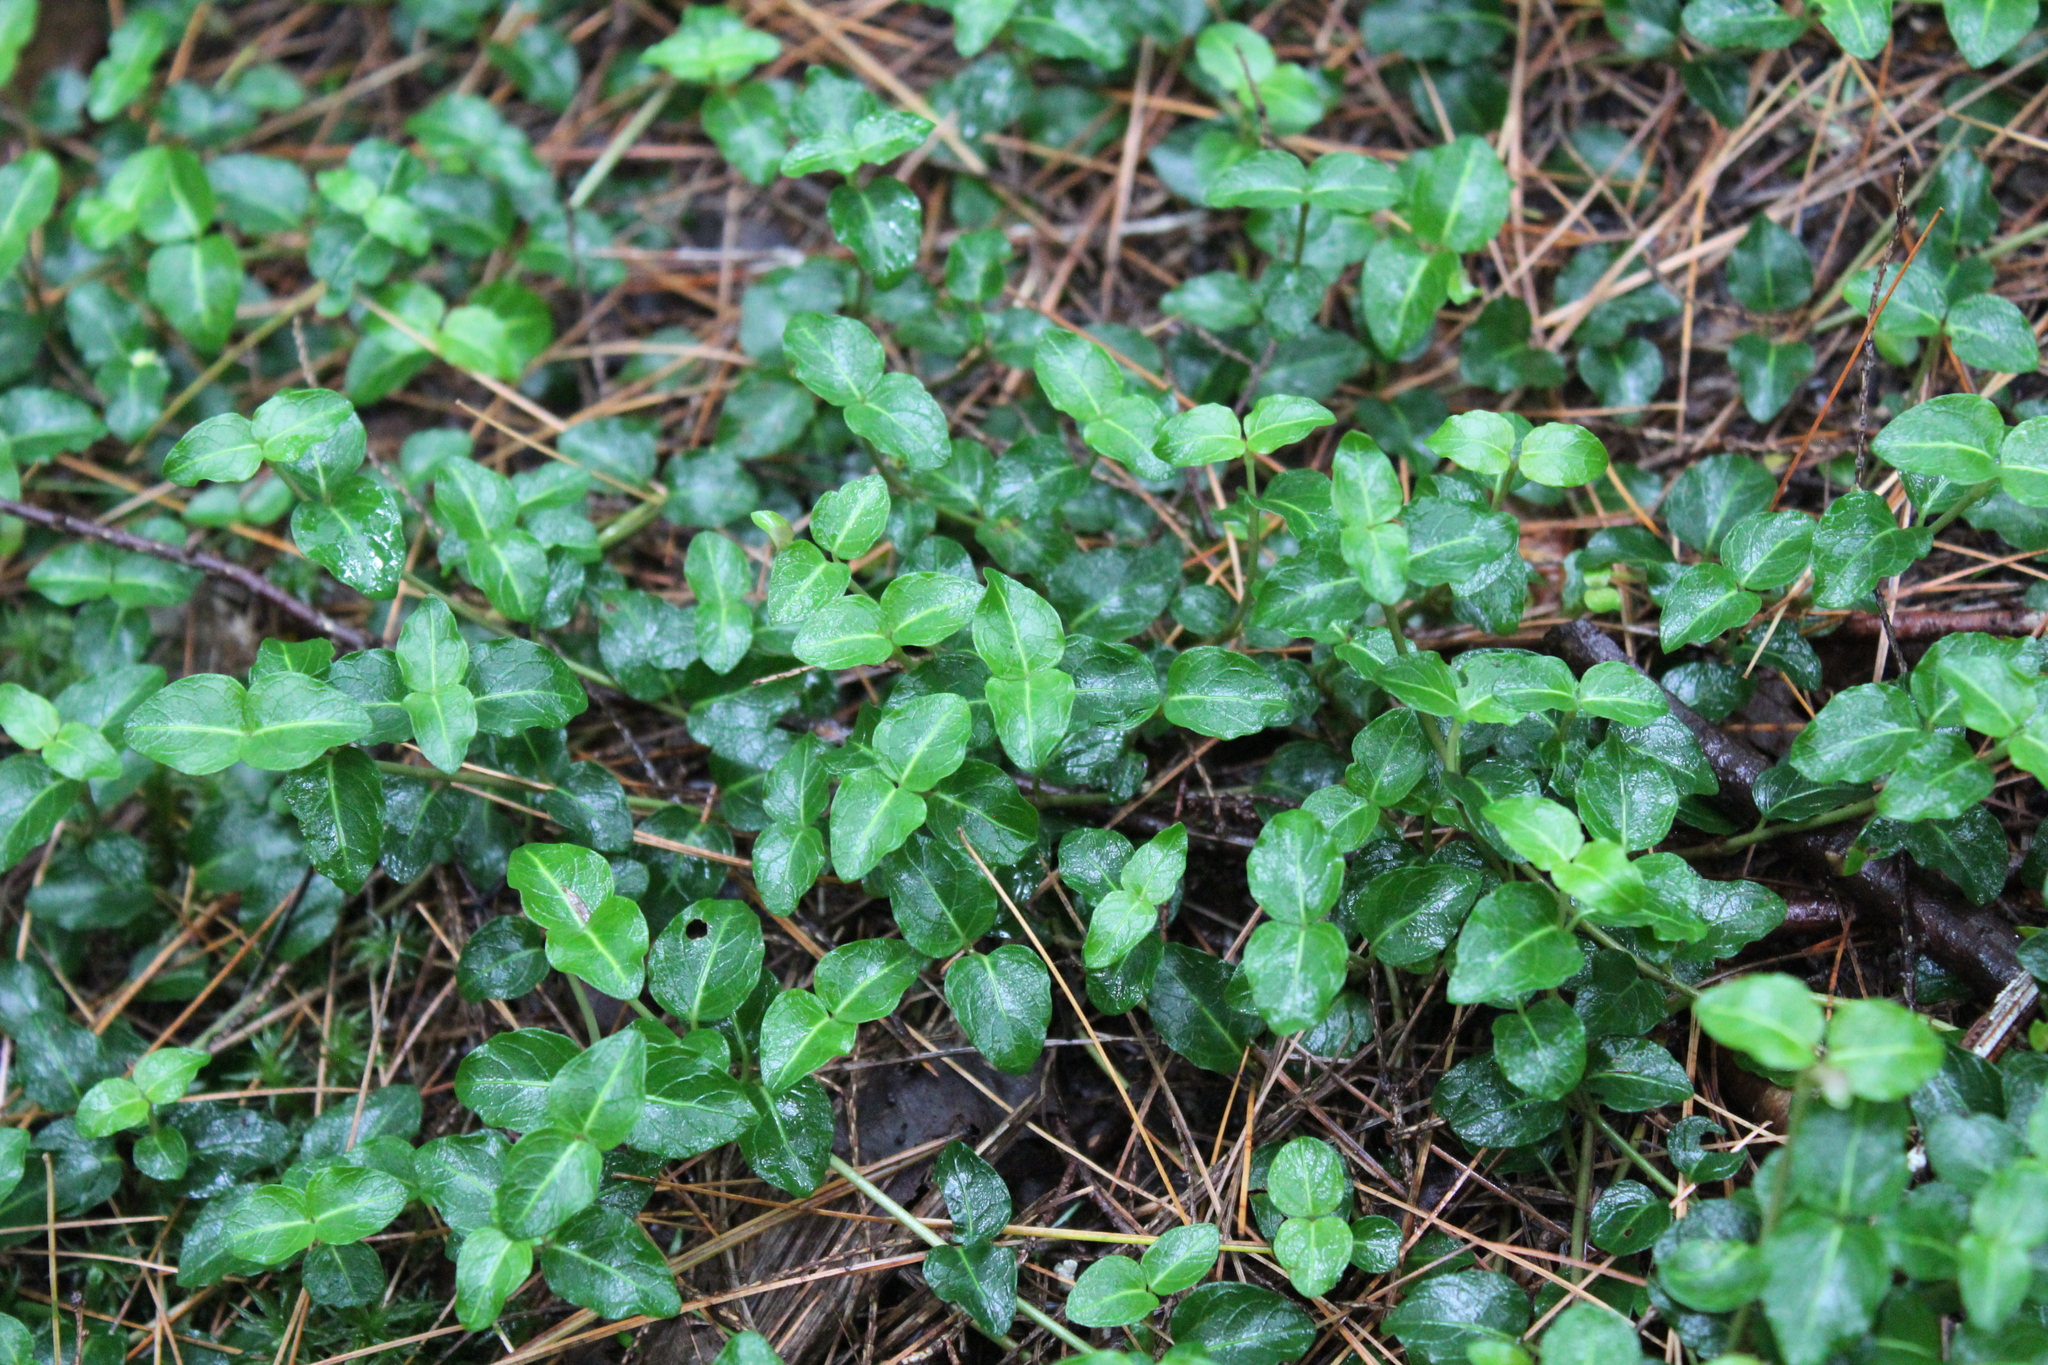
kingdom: Plantae
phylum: Tracheophyta
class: Magnoliopsida
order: Gentianales
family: Rubiaceae
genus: Mitchella
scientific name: Mitchella repens
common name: Partridge-berry
